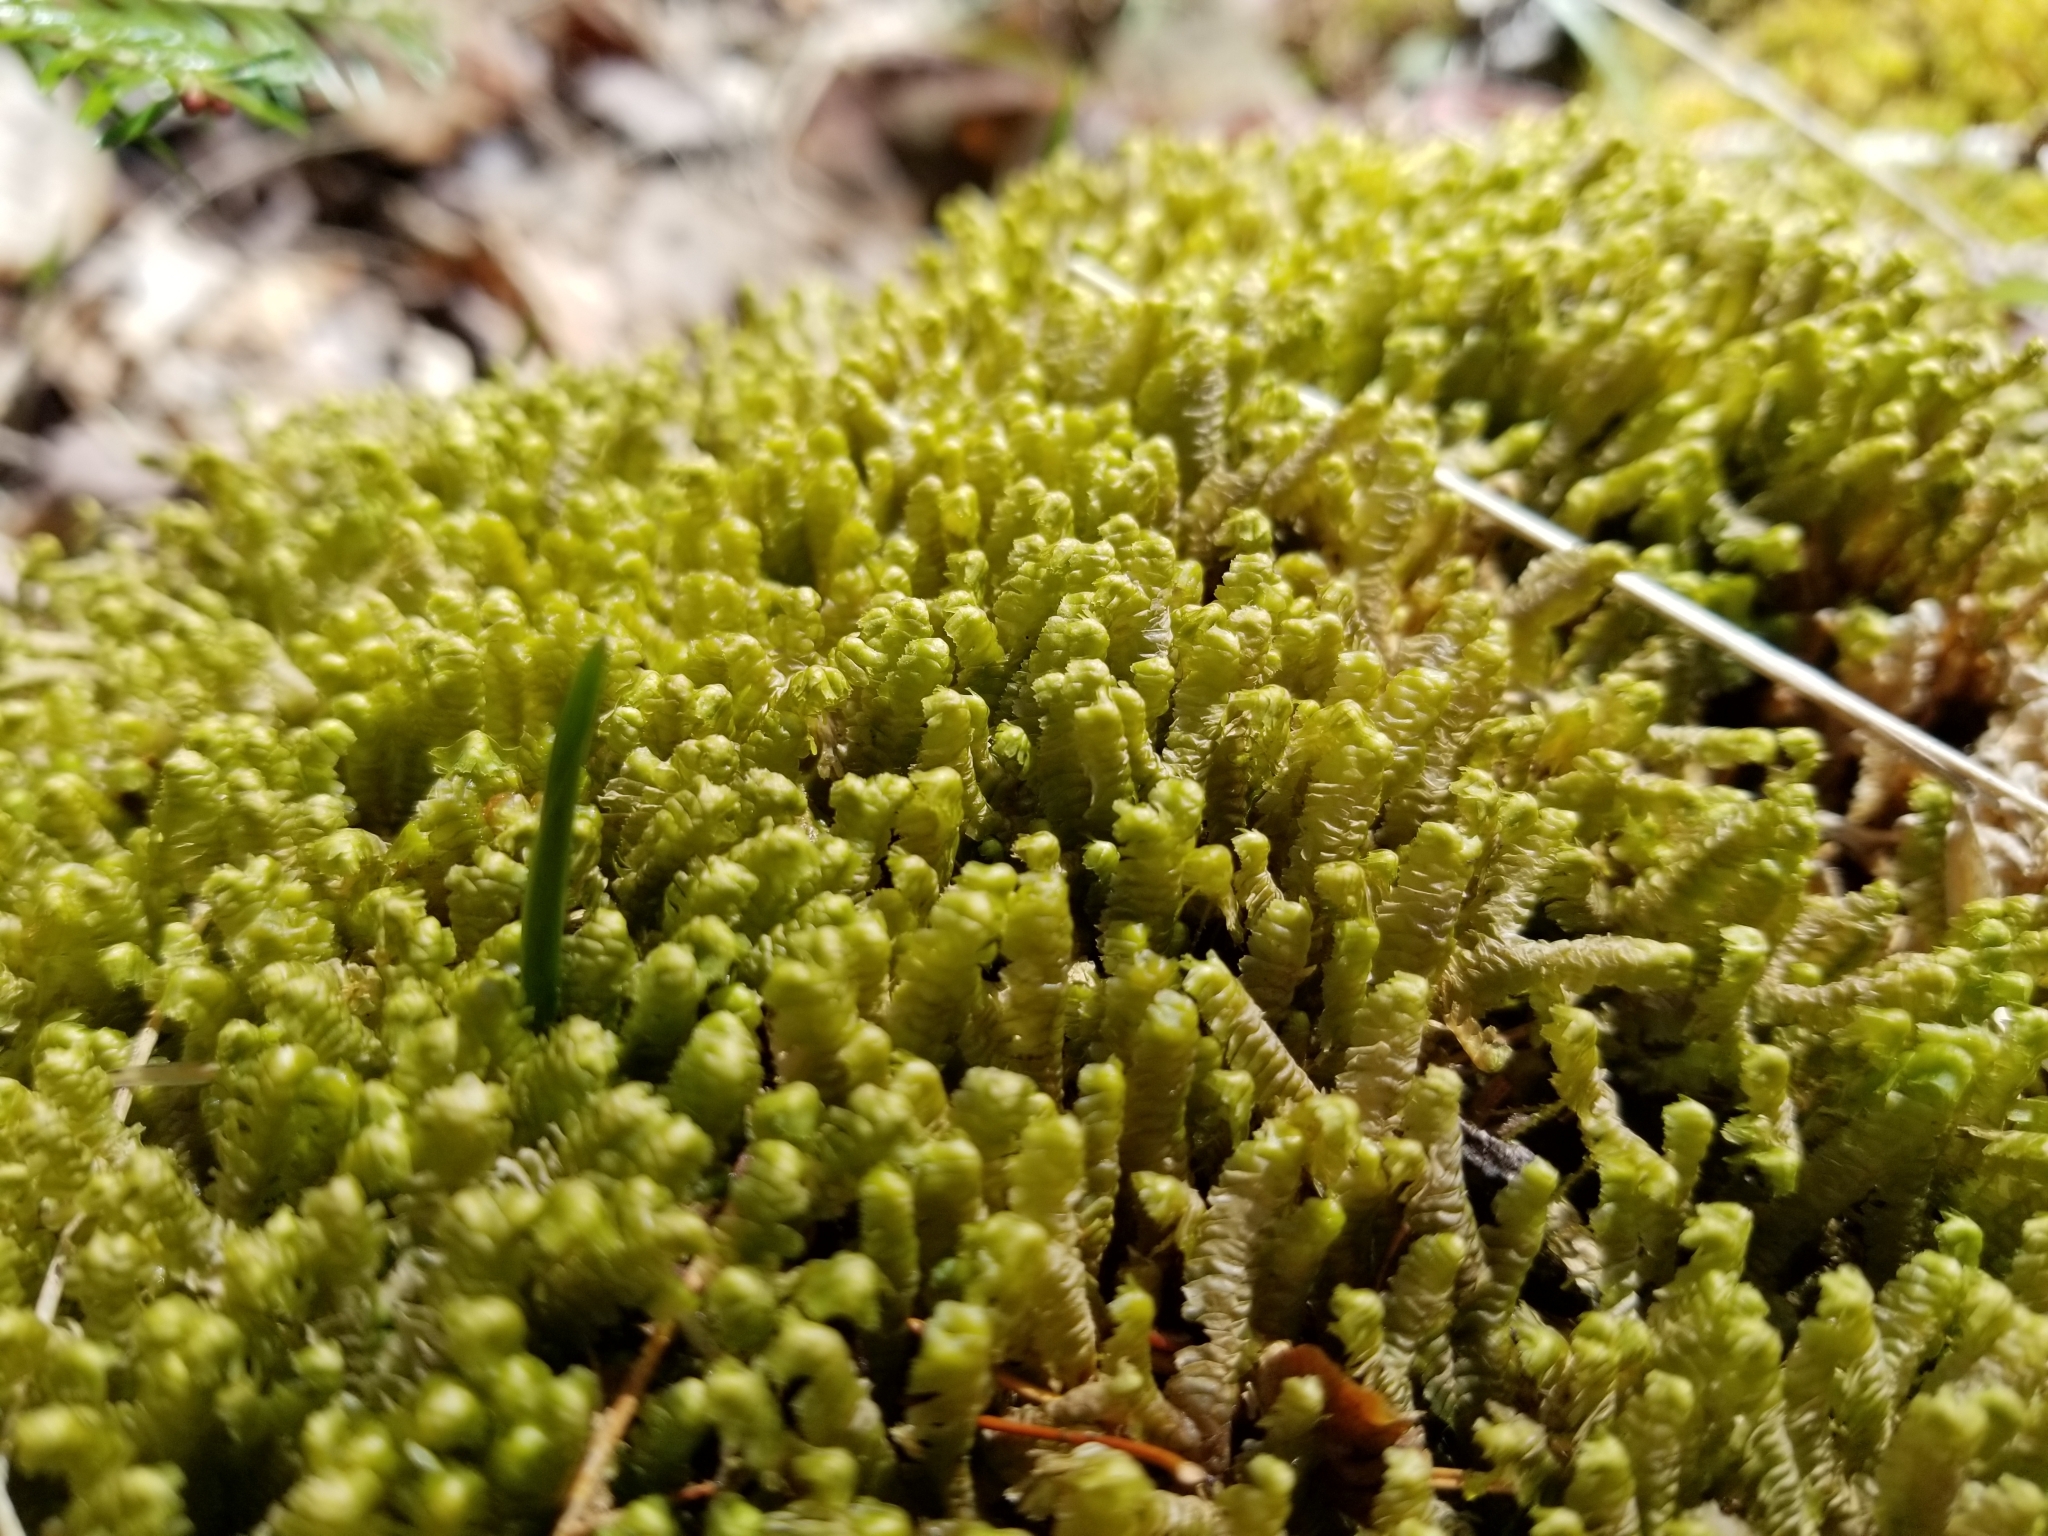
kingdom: Plantae
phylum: Marchantiophyta
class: Jungermanniopsida
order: Jungermanniales
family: Lepidoziaceae
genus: Bazzania
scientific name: Bazzania trilobata
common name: Three-lobed whipwort
